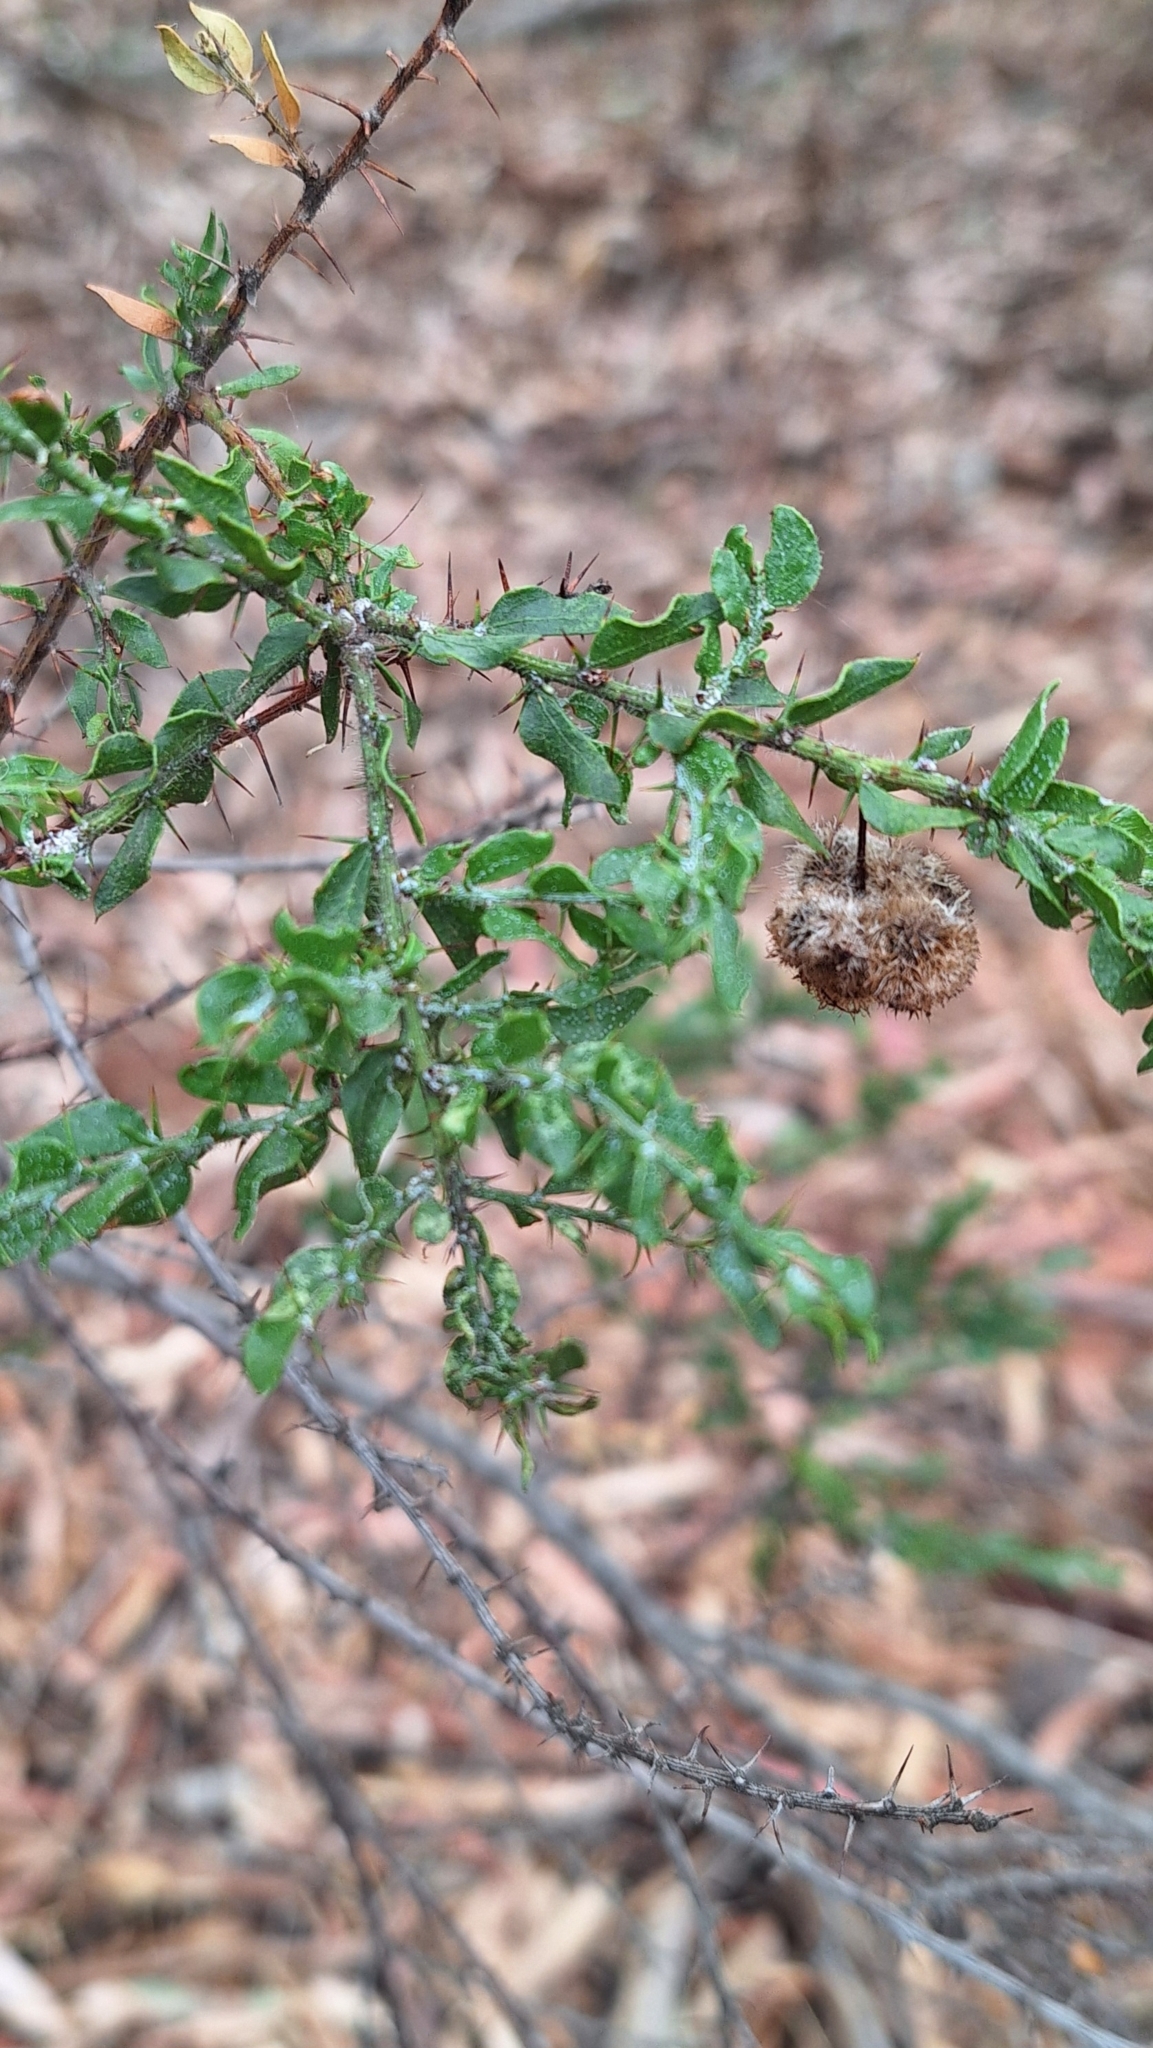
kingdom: Plantae
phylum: Tracheophyta
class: Magnoliopsida
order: Fabales
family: Fabaceae
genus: Acacia
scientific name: Acacia paradoxa
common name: Paradox acacia
